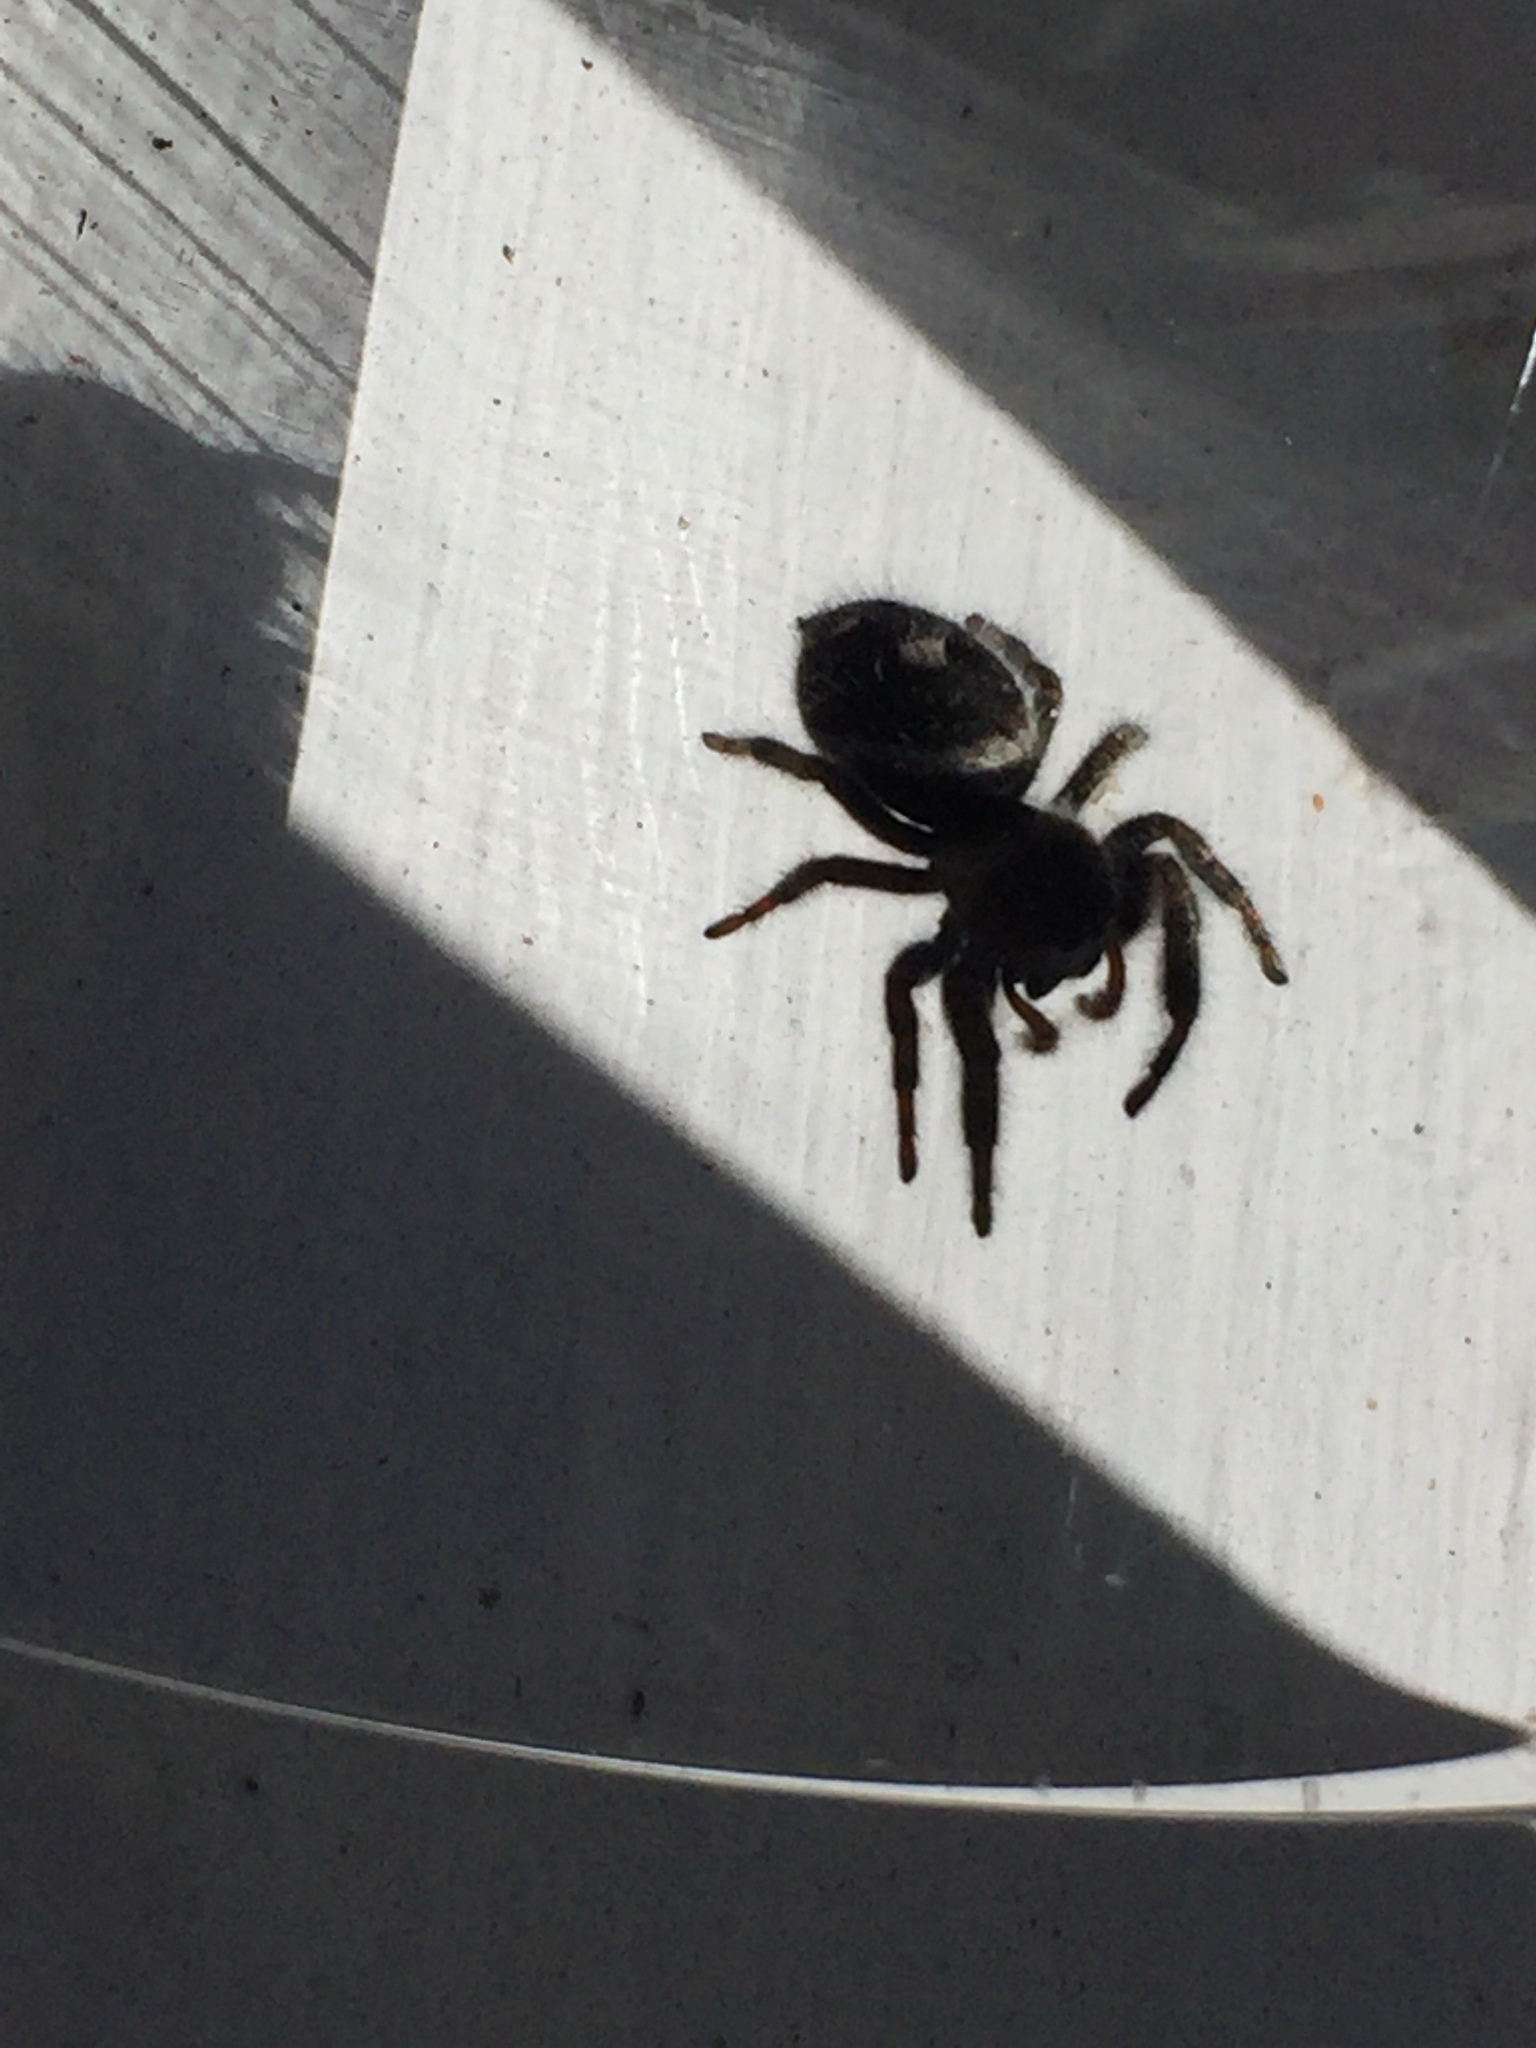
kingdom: Animalia
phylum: Arthropoda
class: Arachnida
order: Araneae
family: Salticidae
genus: Phidippus
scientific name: Phidippus audax
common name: Bold jumper
